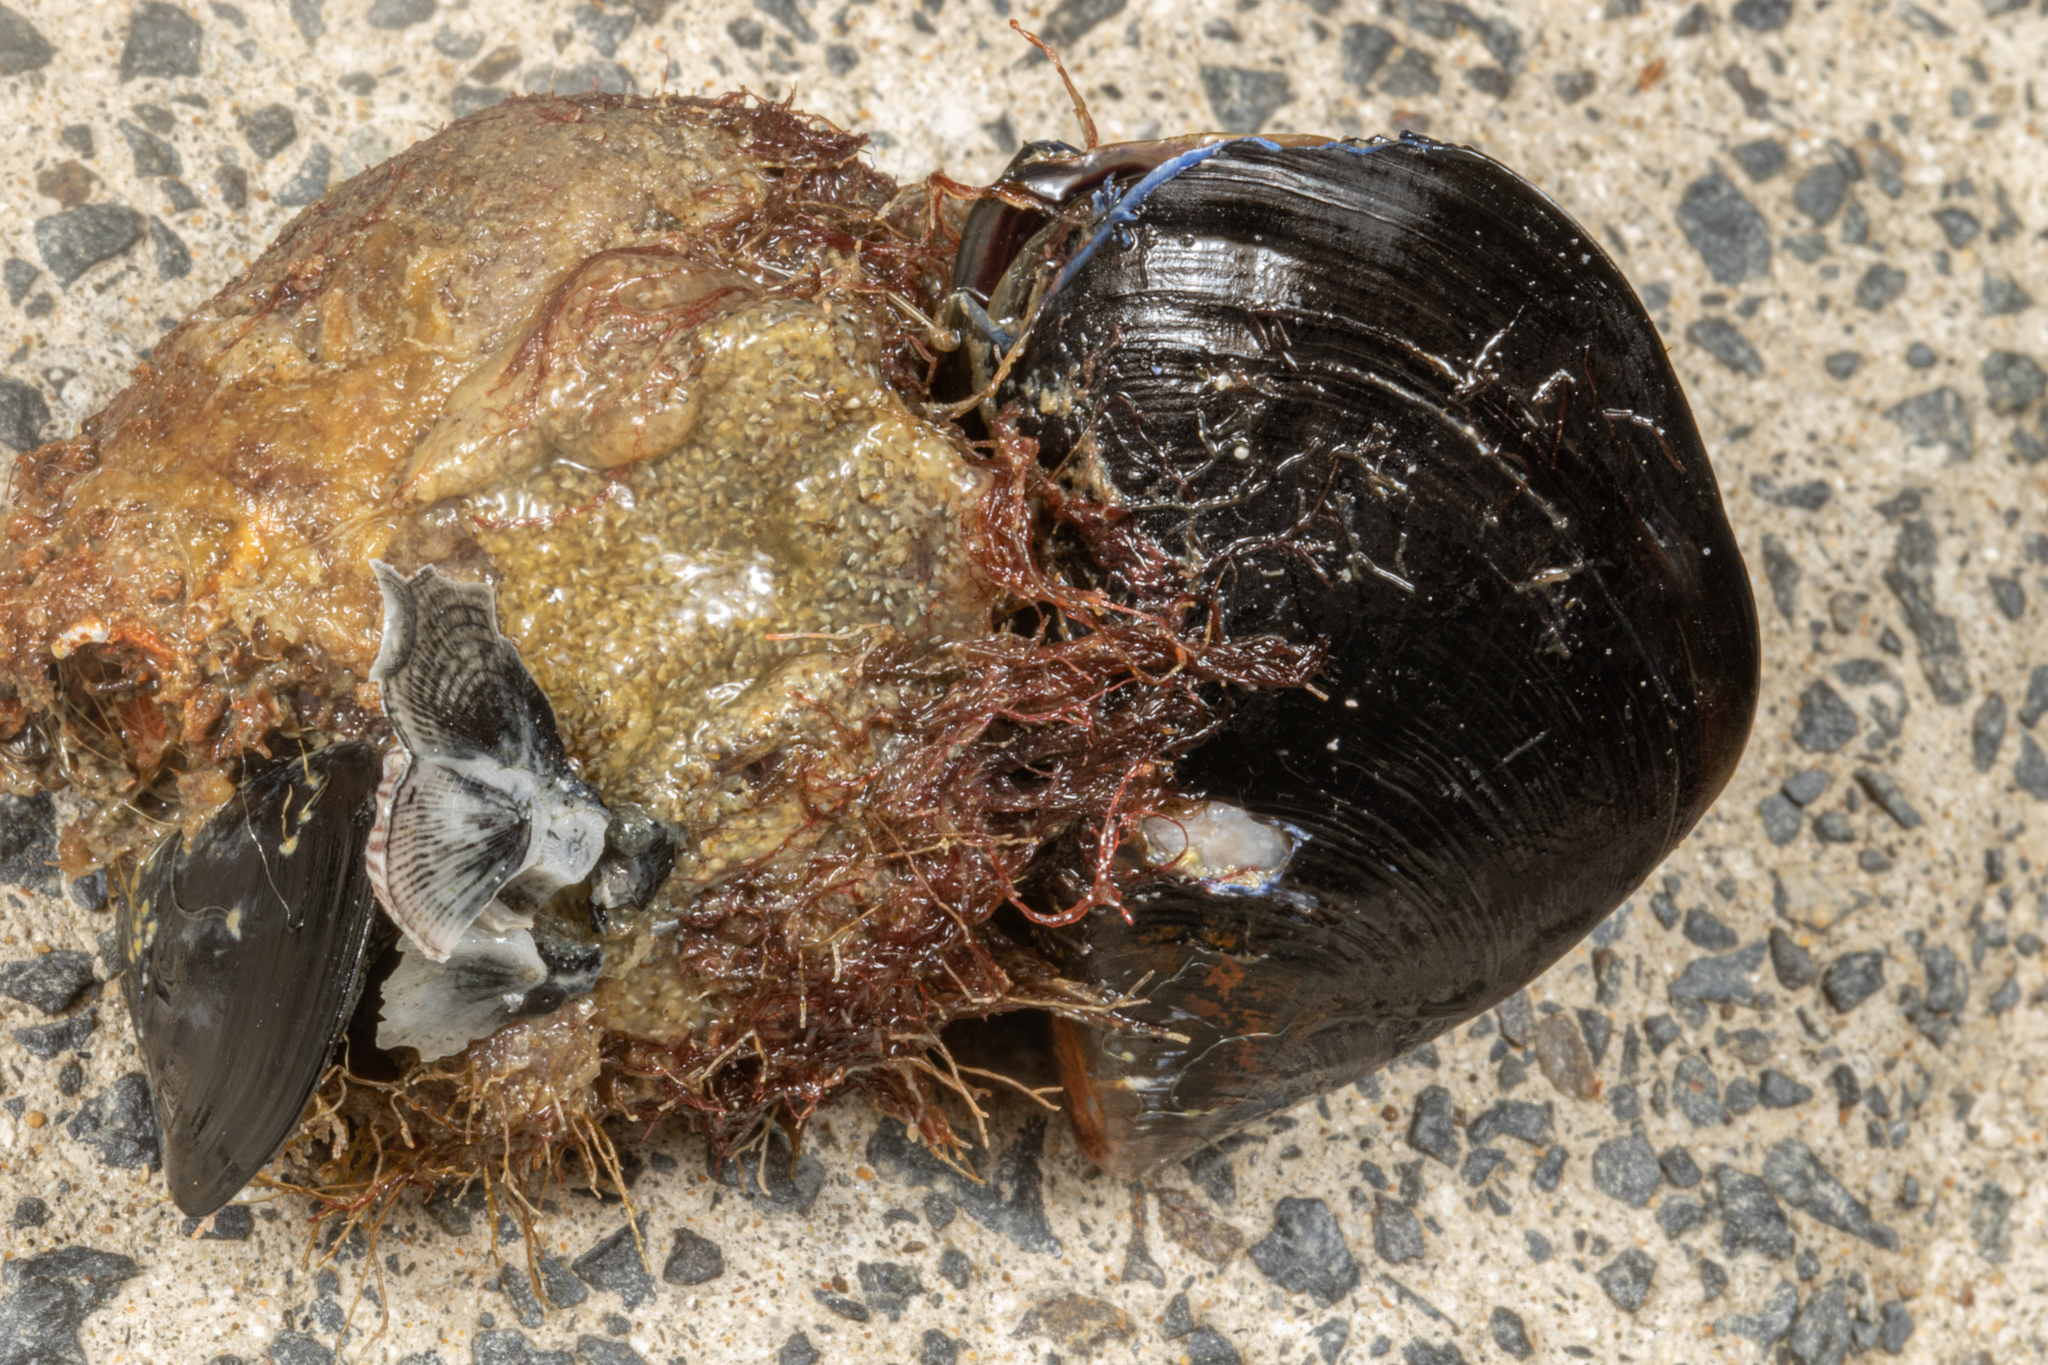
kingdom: Animalia
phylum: Mollusca
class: Bivalvia
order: Mytilida
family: Mytilidae
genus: Mytilus
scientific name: Mytilus planulatus
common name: Australian mussel
